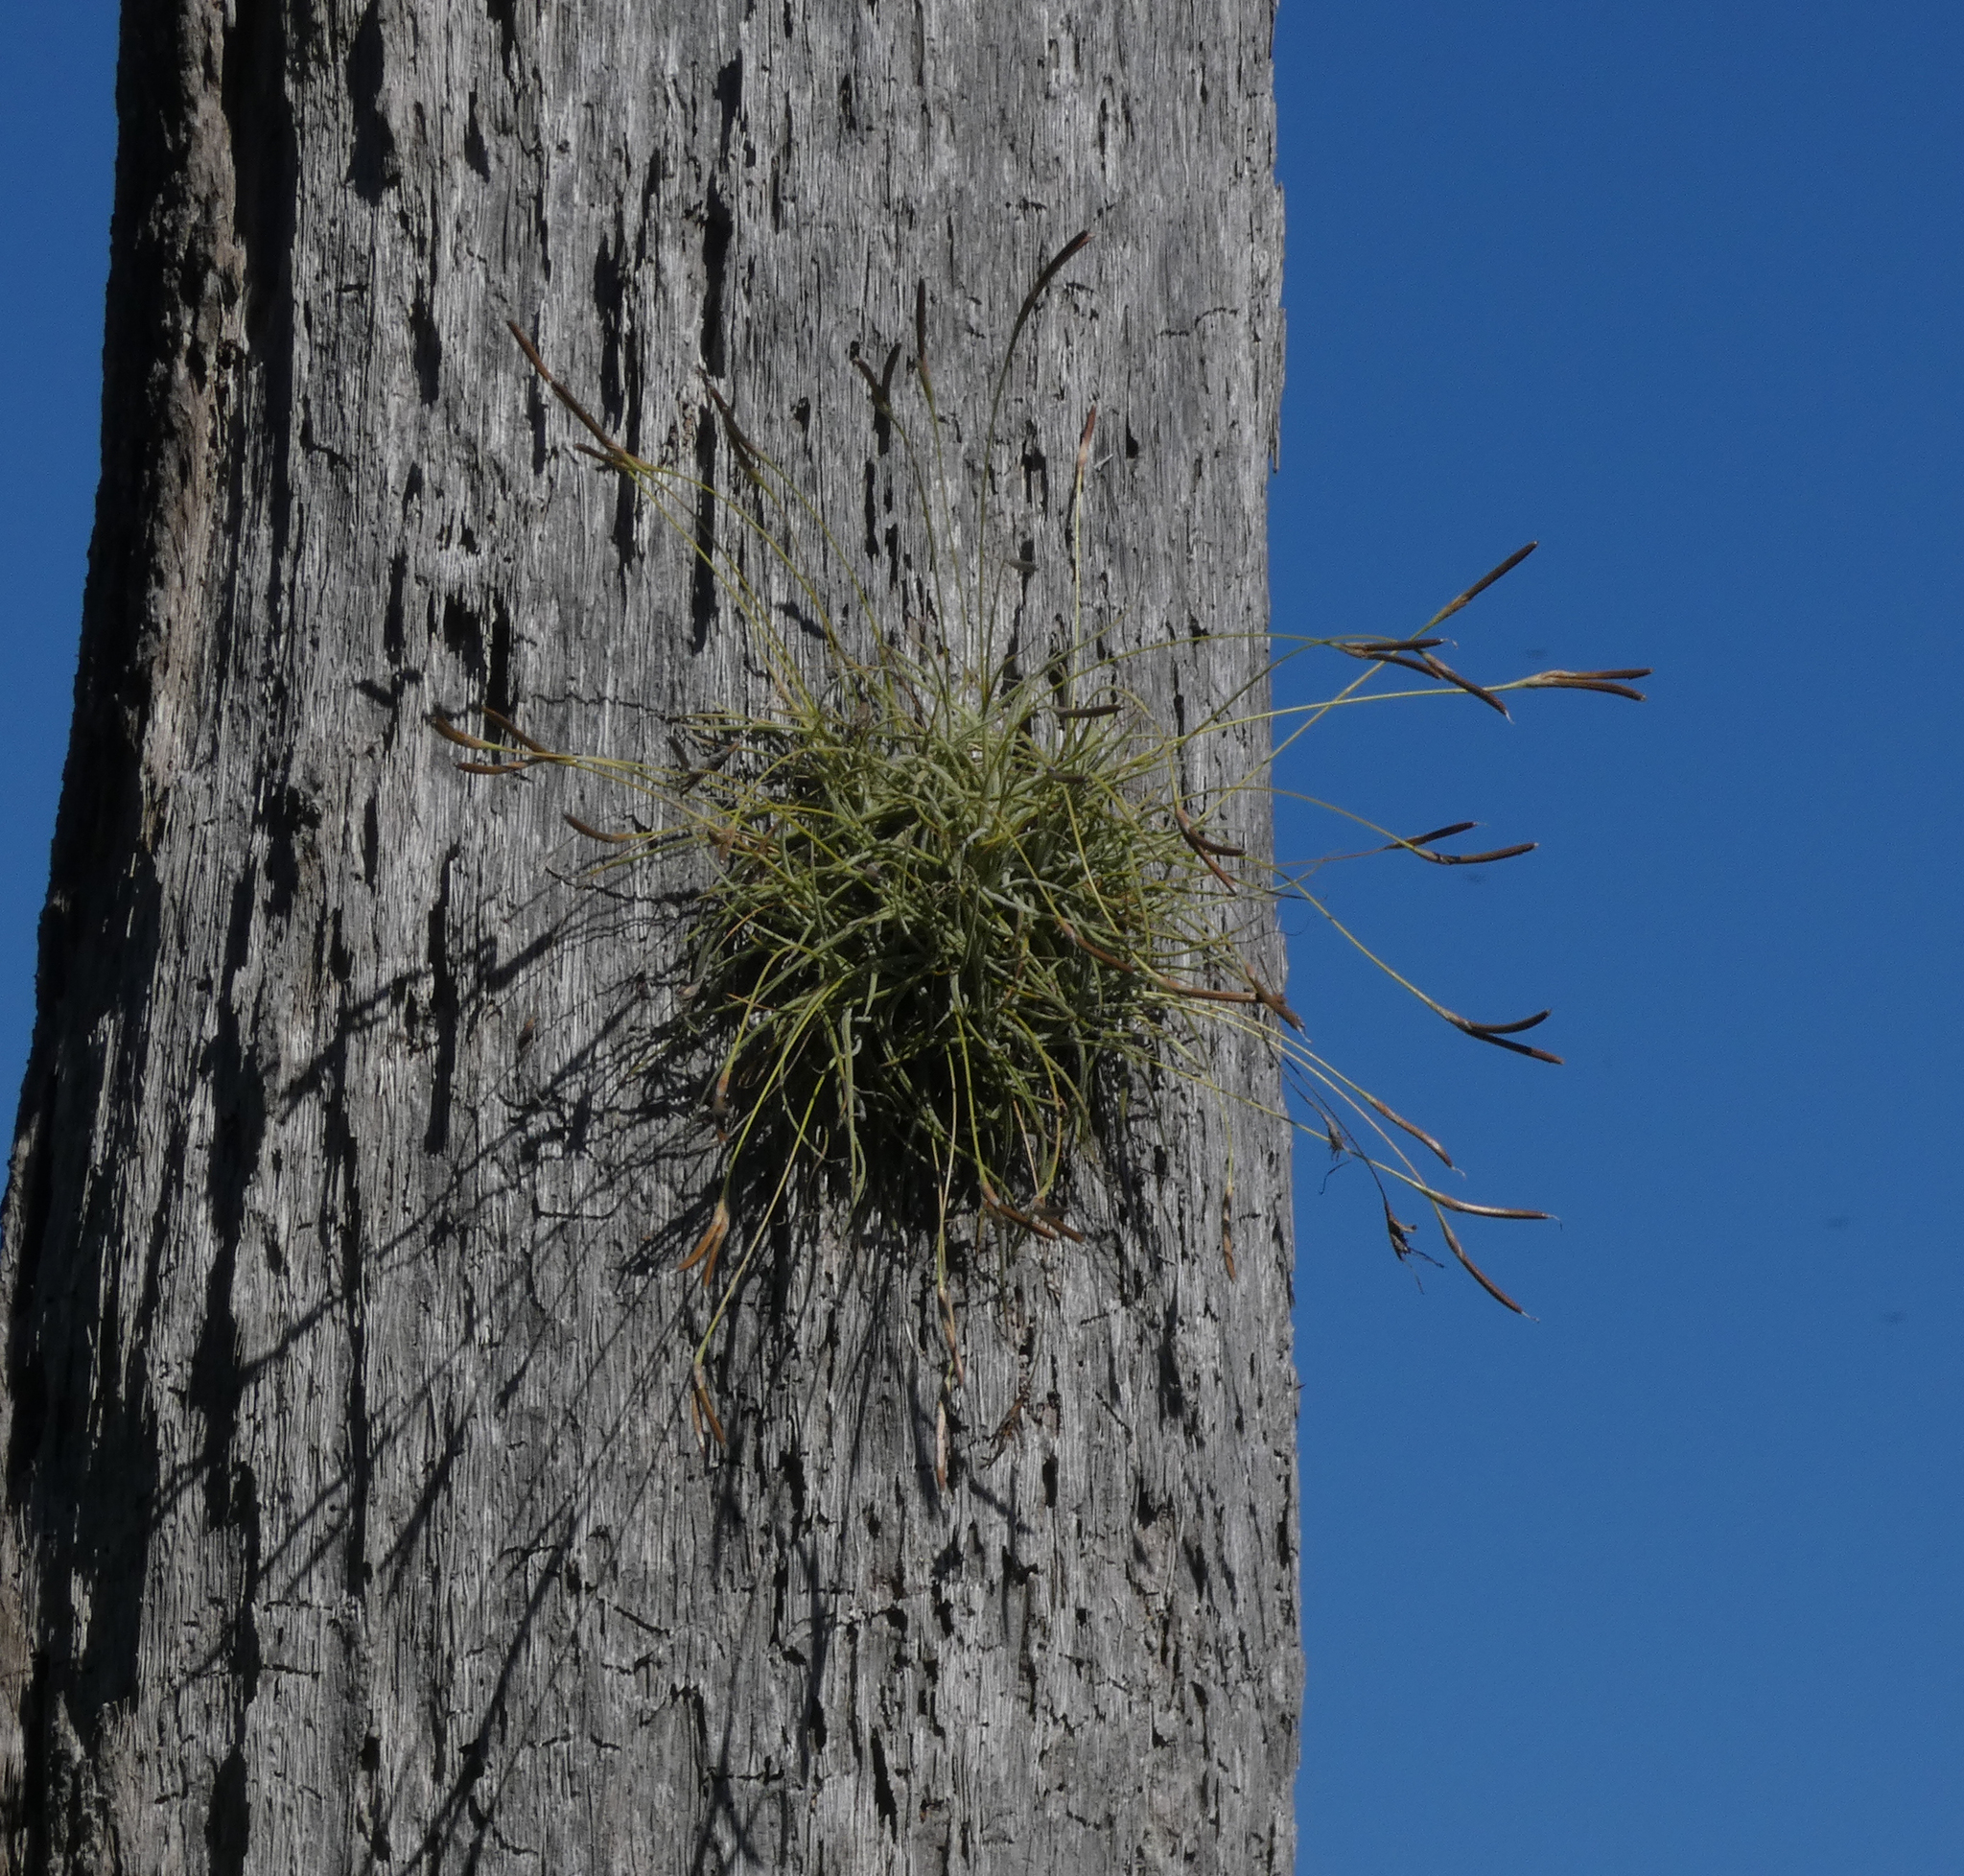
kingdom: Plantae
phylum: Tracheophyta
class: Liliopsida
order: Poales
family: Bromeliaceae
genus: Tillandsia
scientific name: Tillandsia recurvata
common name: Small ballmoss
